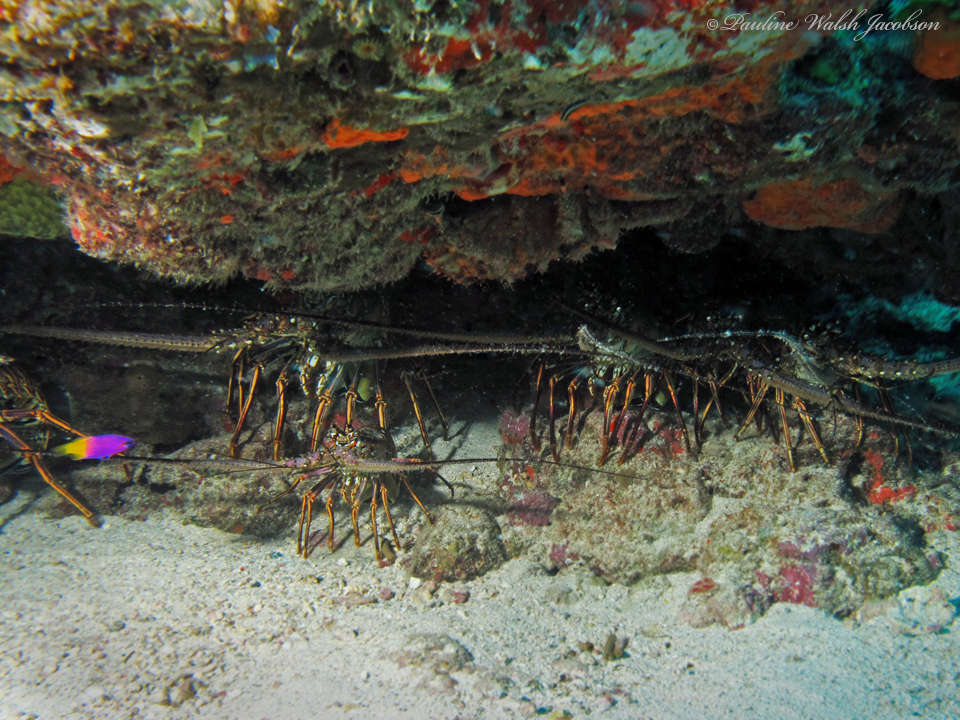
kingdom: Animalia
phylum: Arthropoda
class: Malacostraca
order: Decapoda
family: Palinuridae
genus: Panulirus
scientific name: Panulirus argus
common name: Caribbean spiny lobster
